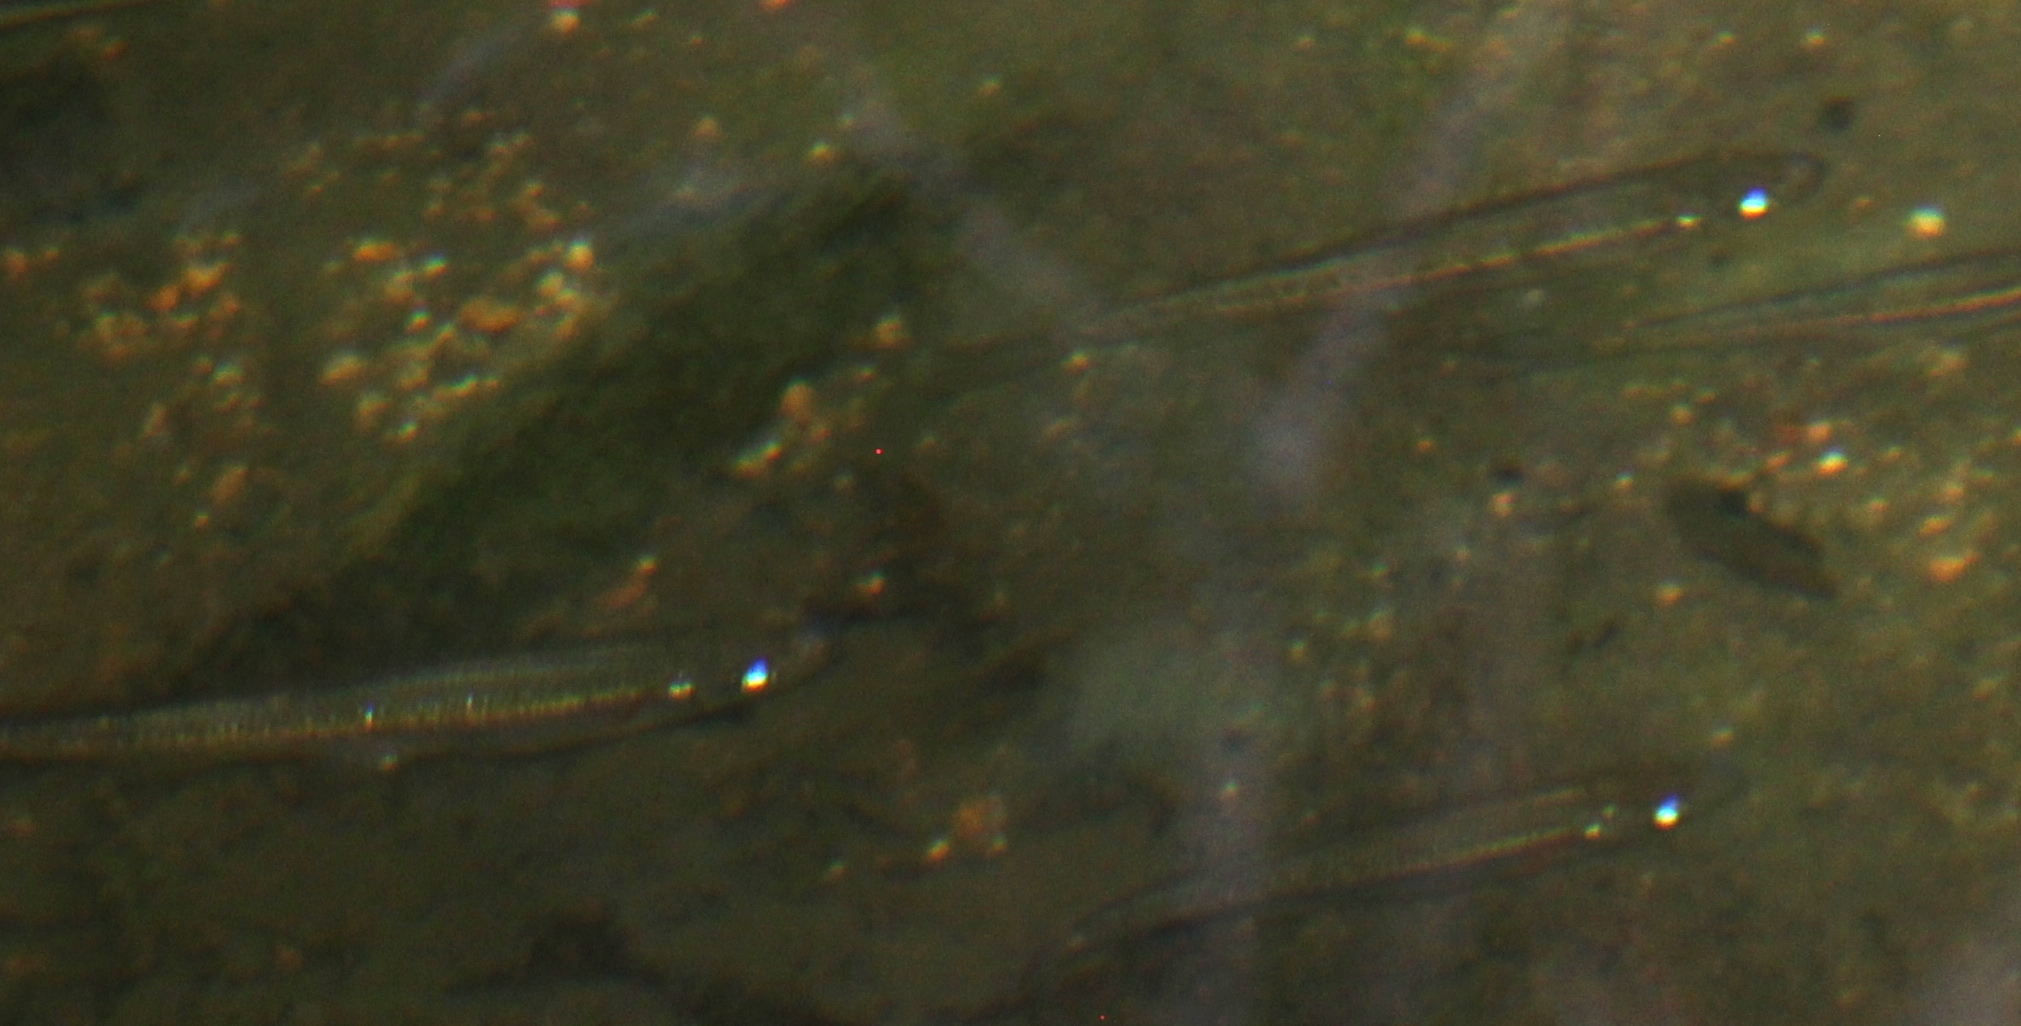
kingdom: Animalia
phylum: Chordata
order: Cypriniformes
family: Cyprinidae
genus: Clinostomus
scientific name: Clinostomus funduloides
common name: Rosyside dace
